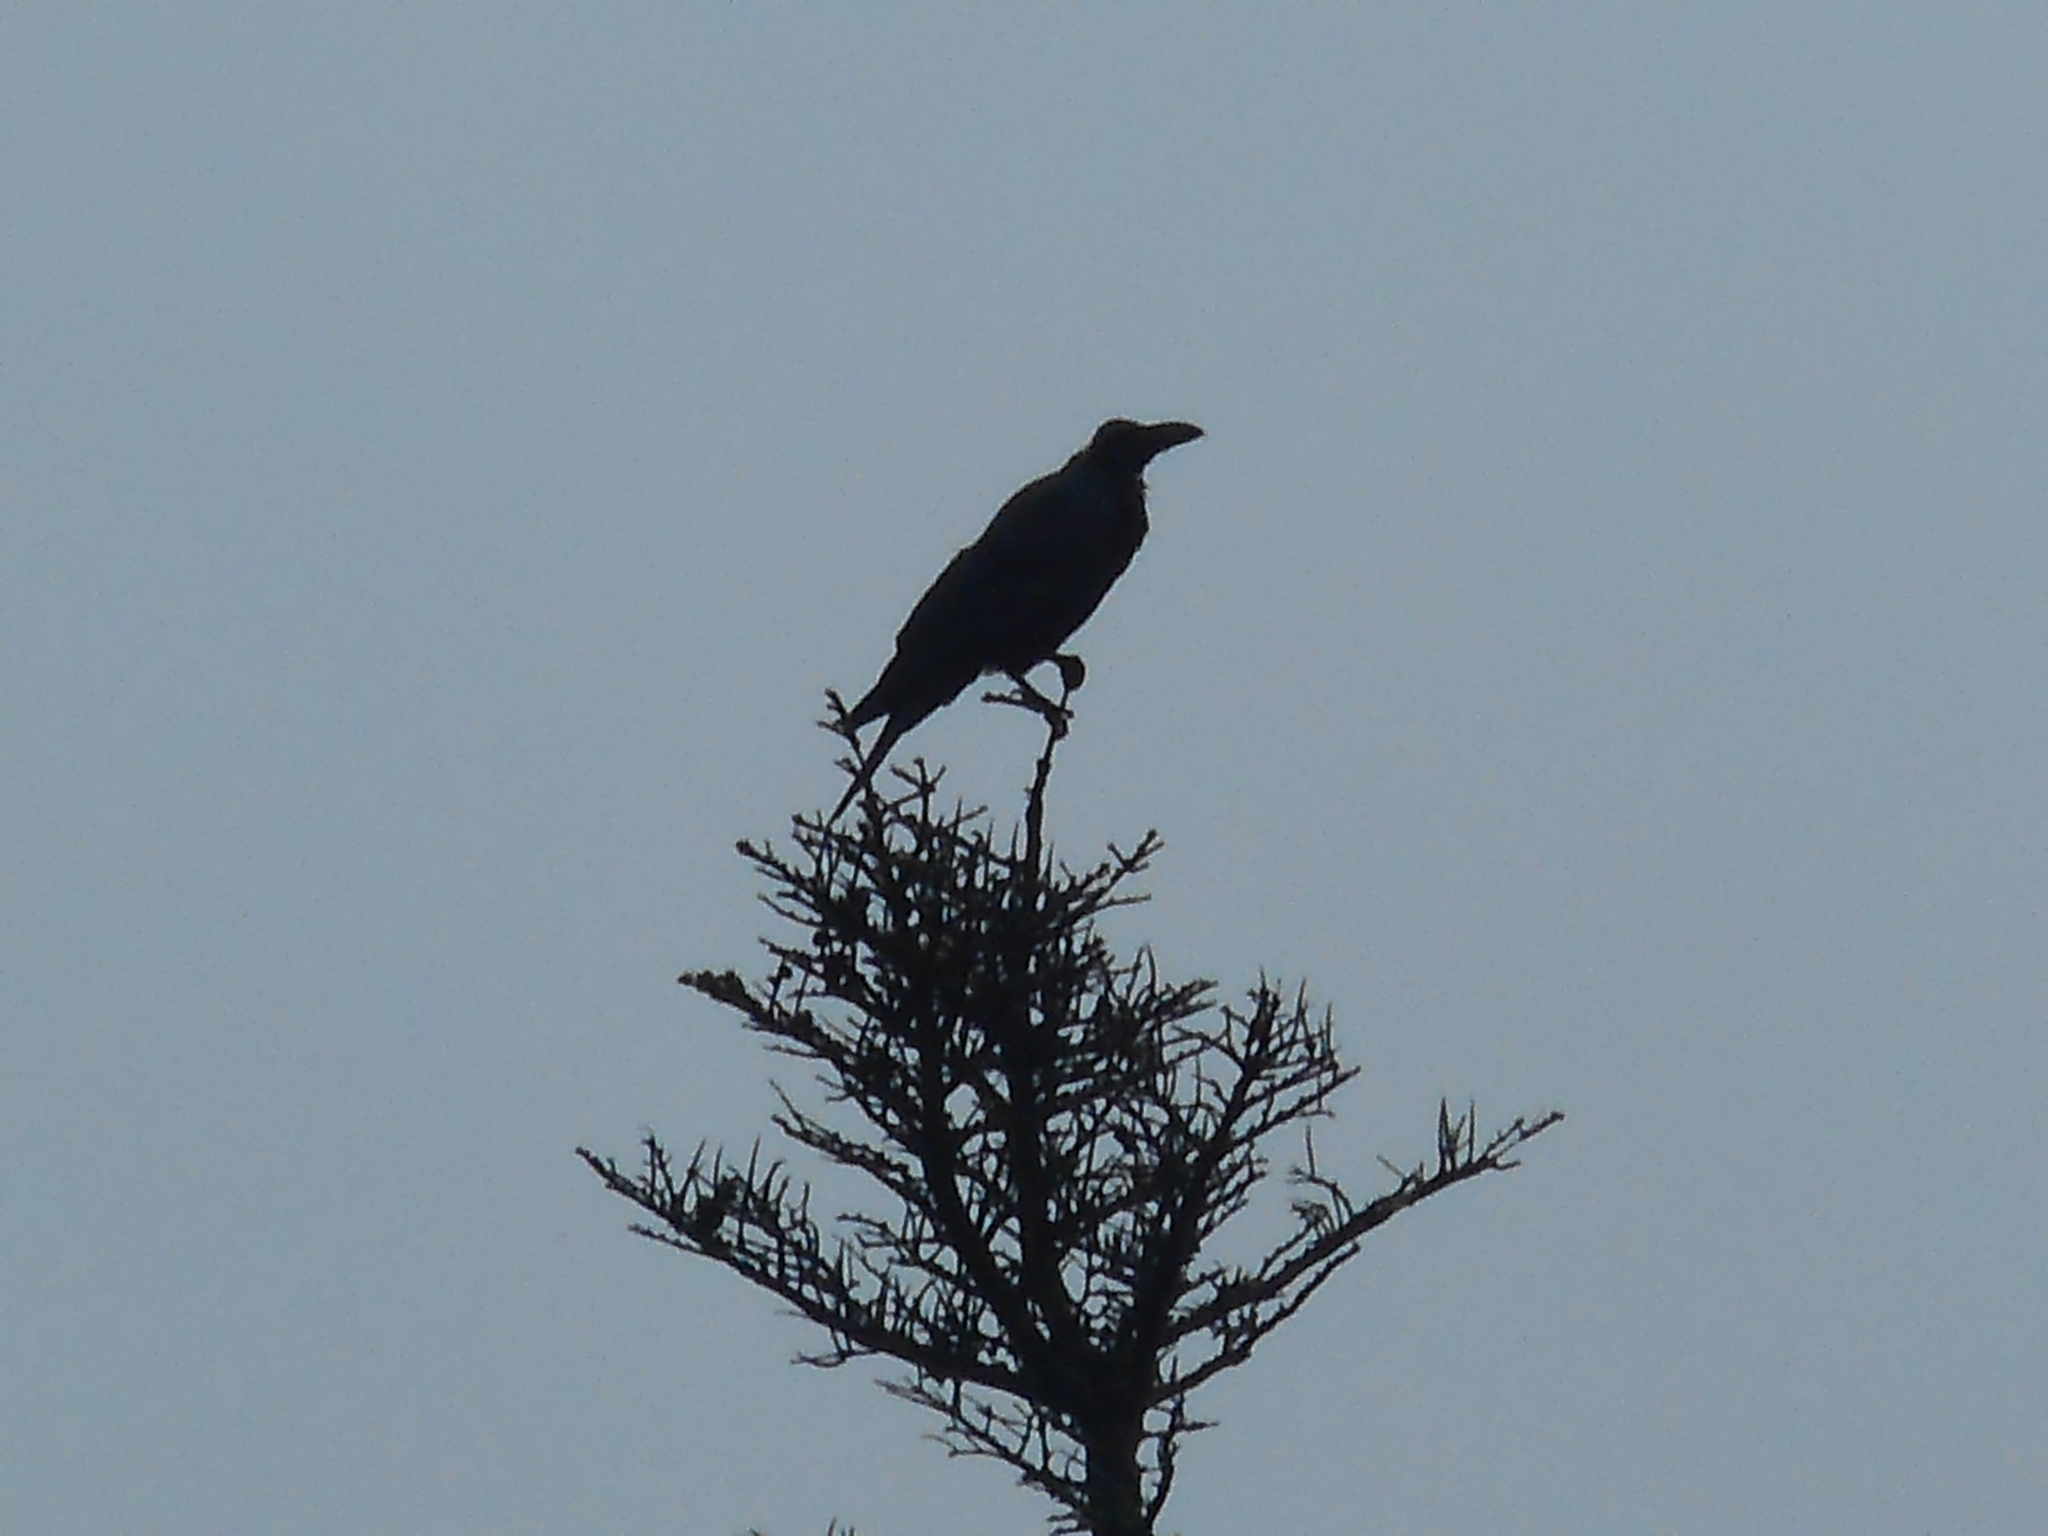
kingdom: Animalia
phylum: Chordata
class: Aves
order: Passeriformes
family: Corvidae
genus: Corvus
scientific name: Corvus macrorhynchos
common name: Large-billed crow
